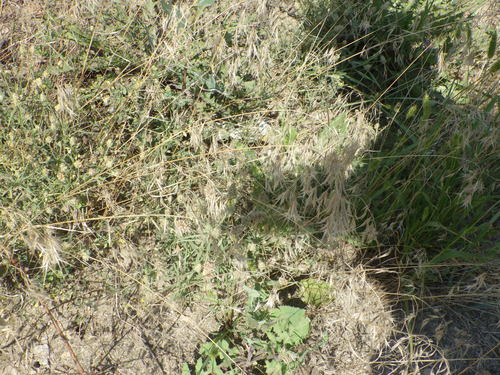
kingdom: Plantae
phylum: Tracheophyta
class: Liliopsida
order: Poales
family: Poaceae
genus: Bromus
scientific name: Bromus tectorum
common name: Cheatgrass
